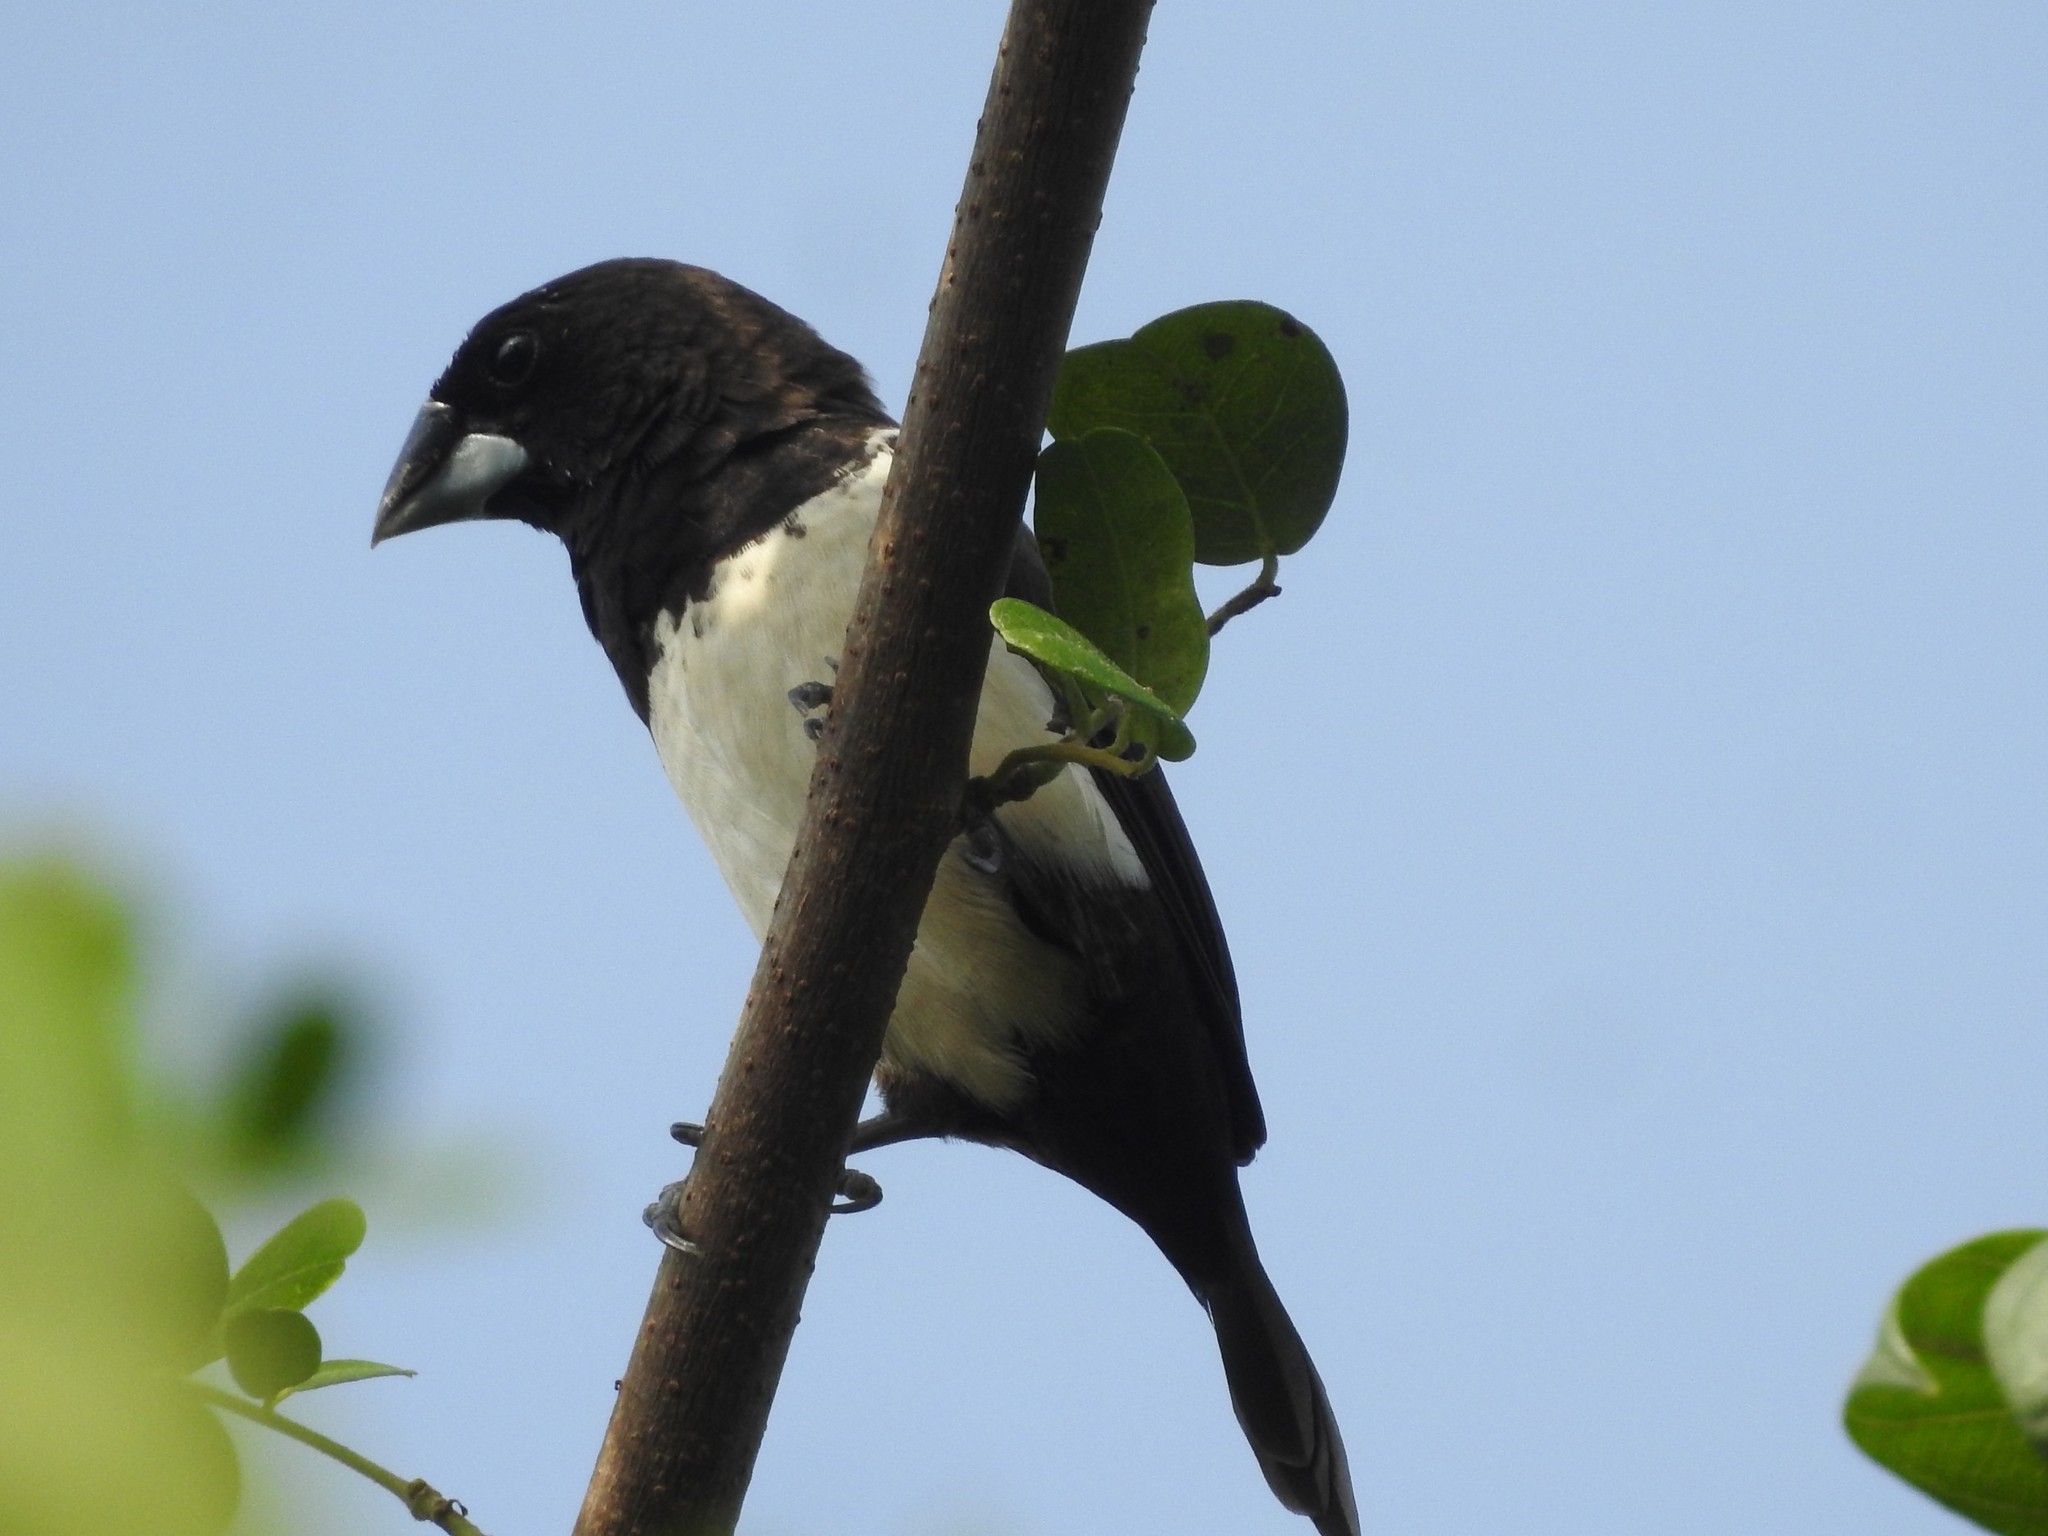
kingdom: Animalia
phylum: Chordata
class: Aves
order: Passeriformes
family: Estrildidae
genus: Lonchura
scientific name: Lonchura striata
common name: White-rumped munia
